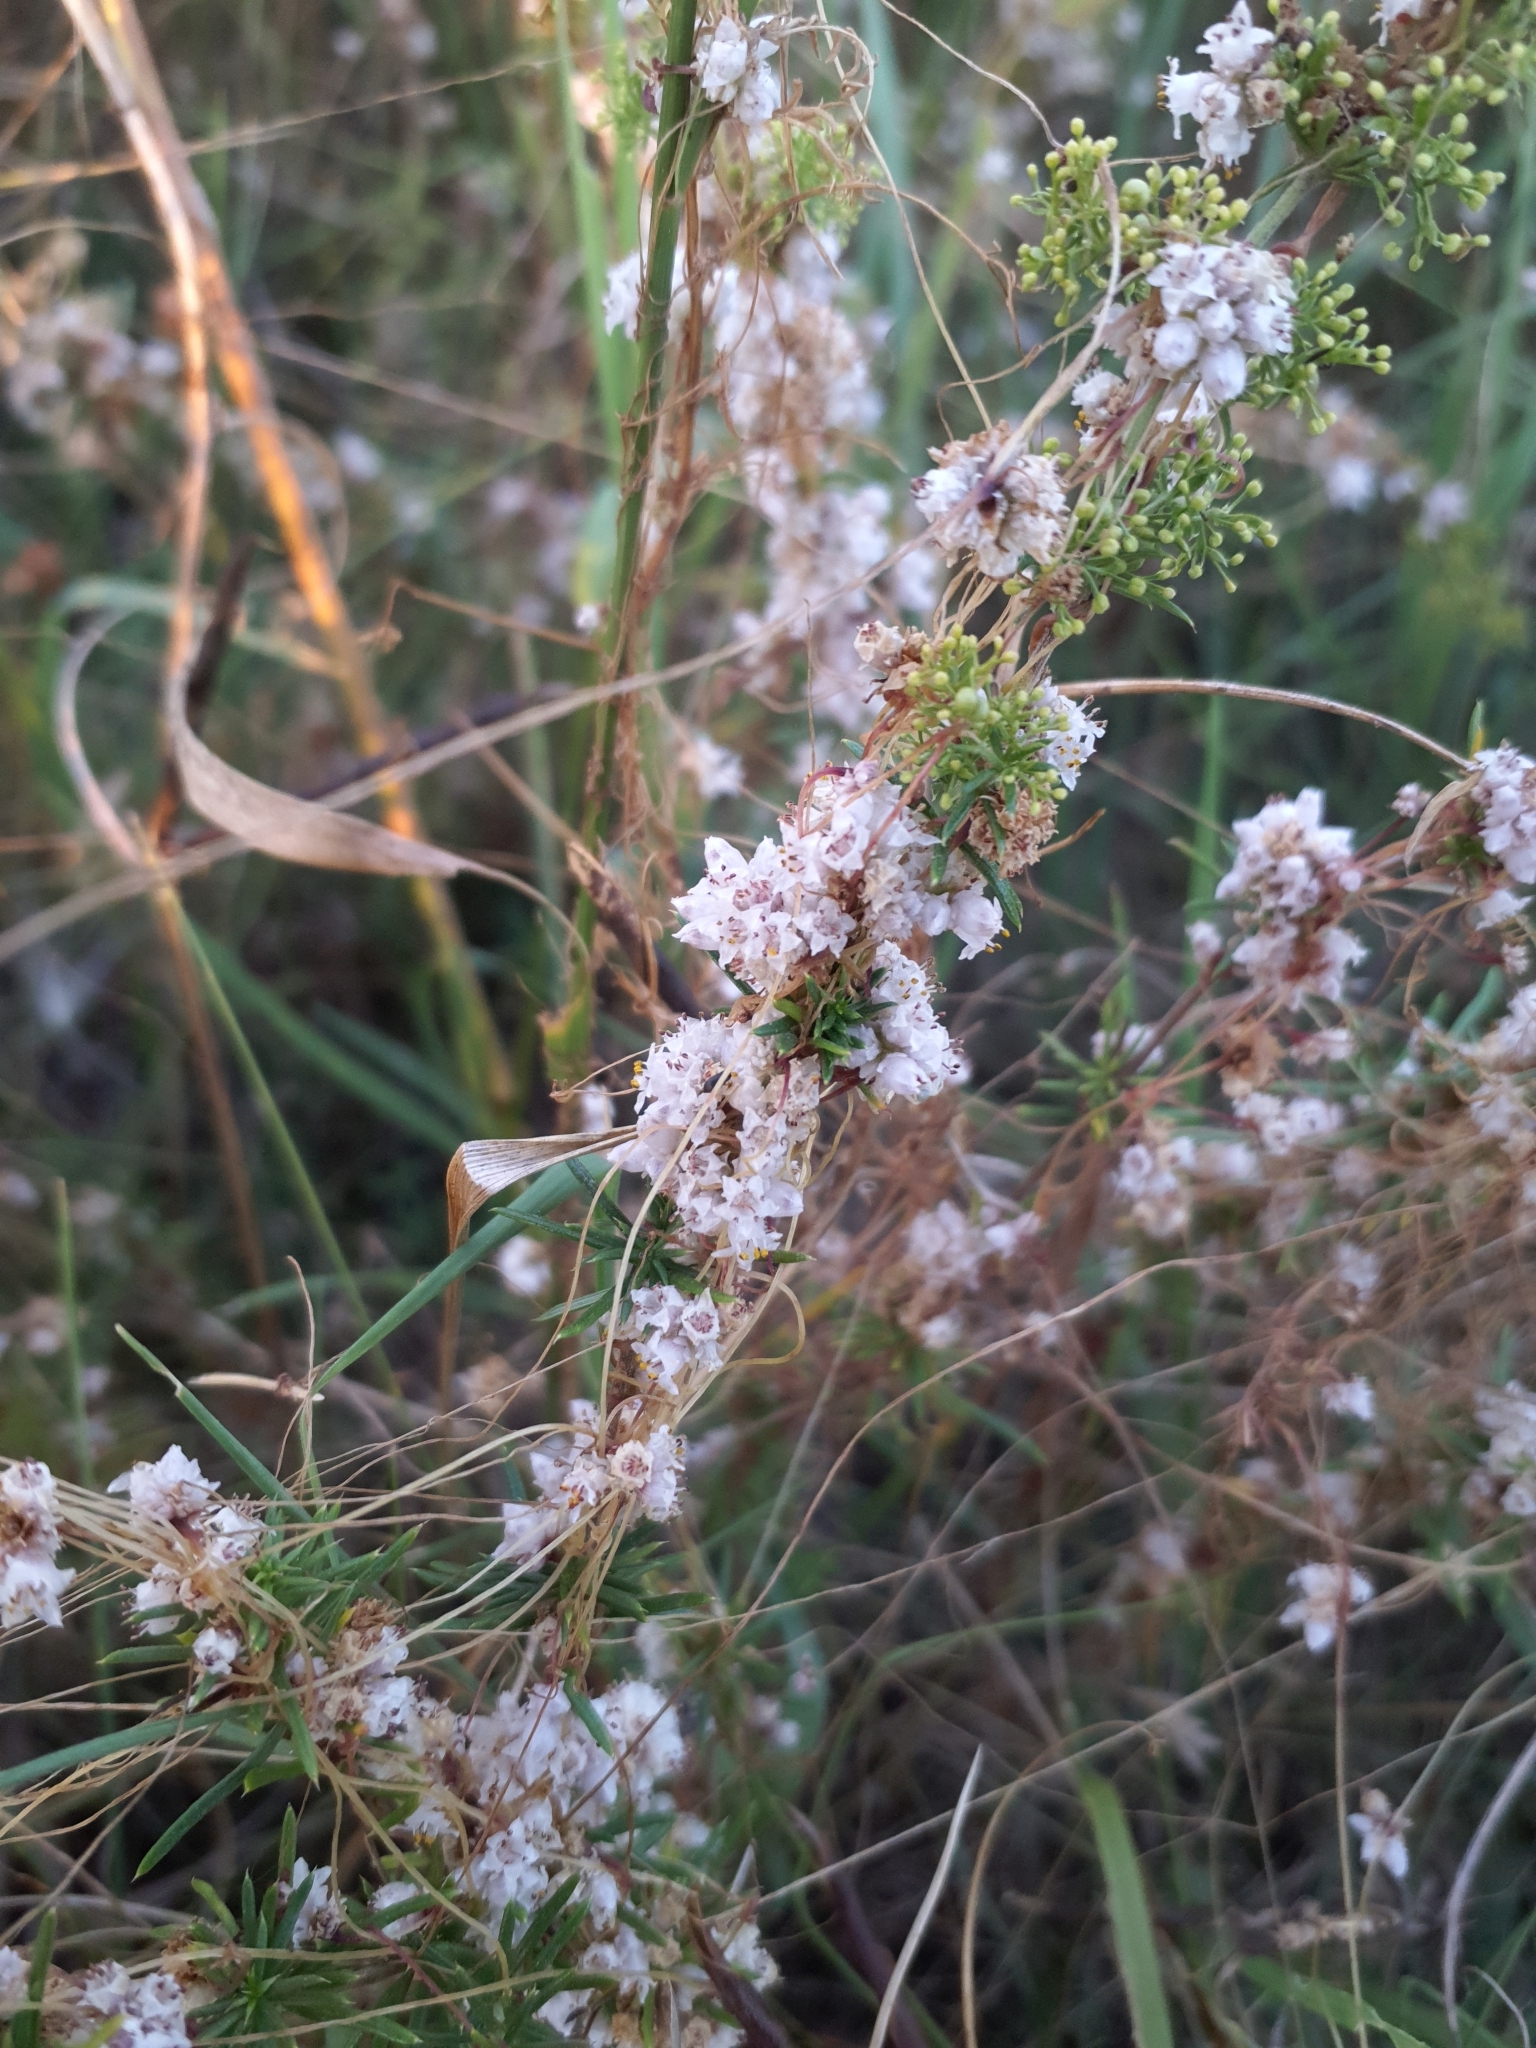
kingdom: Plantae
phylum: Tracheophyta
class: Magnoliopsida
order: Solanales
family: Convolvulaceae
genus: Cuscuta
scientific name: Cuscuta epithymum
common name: Clover dodder
